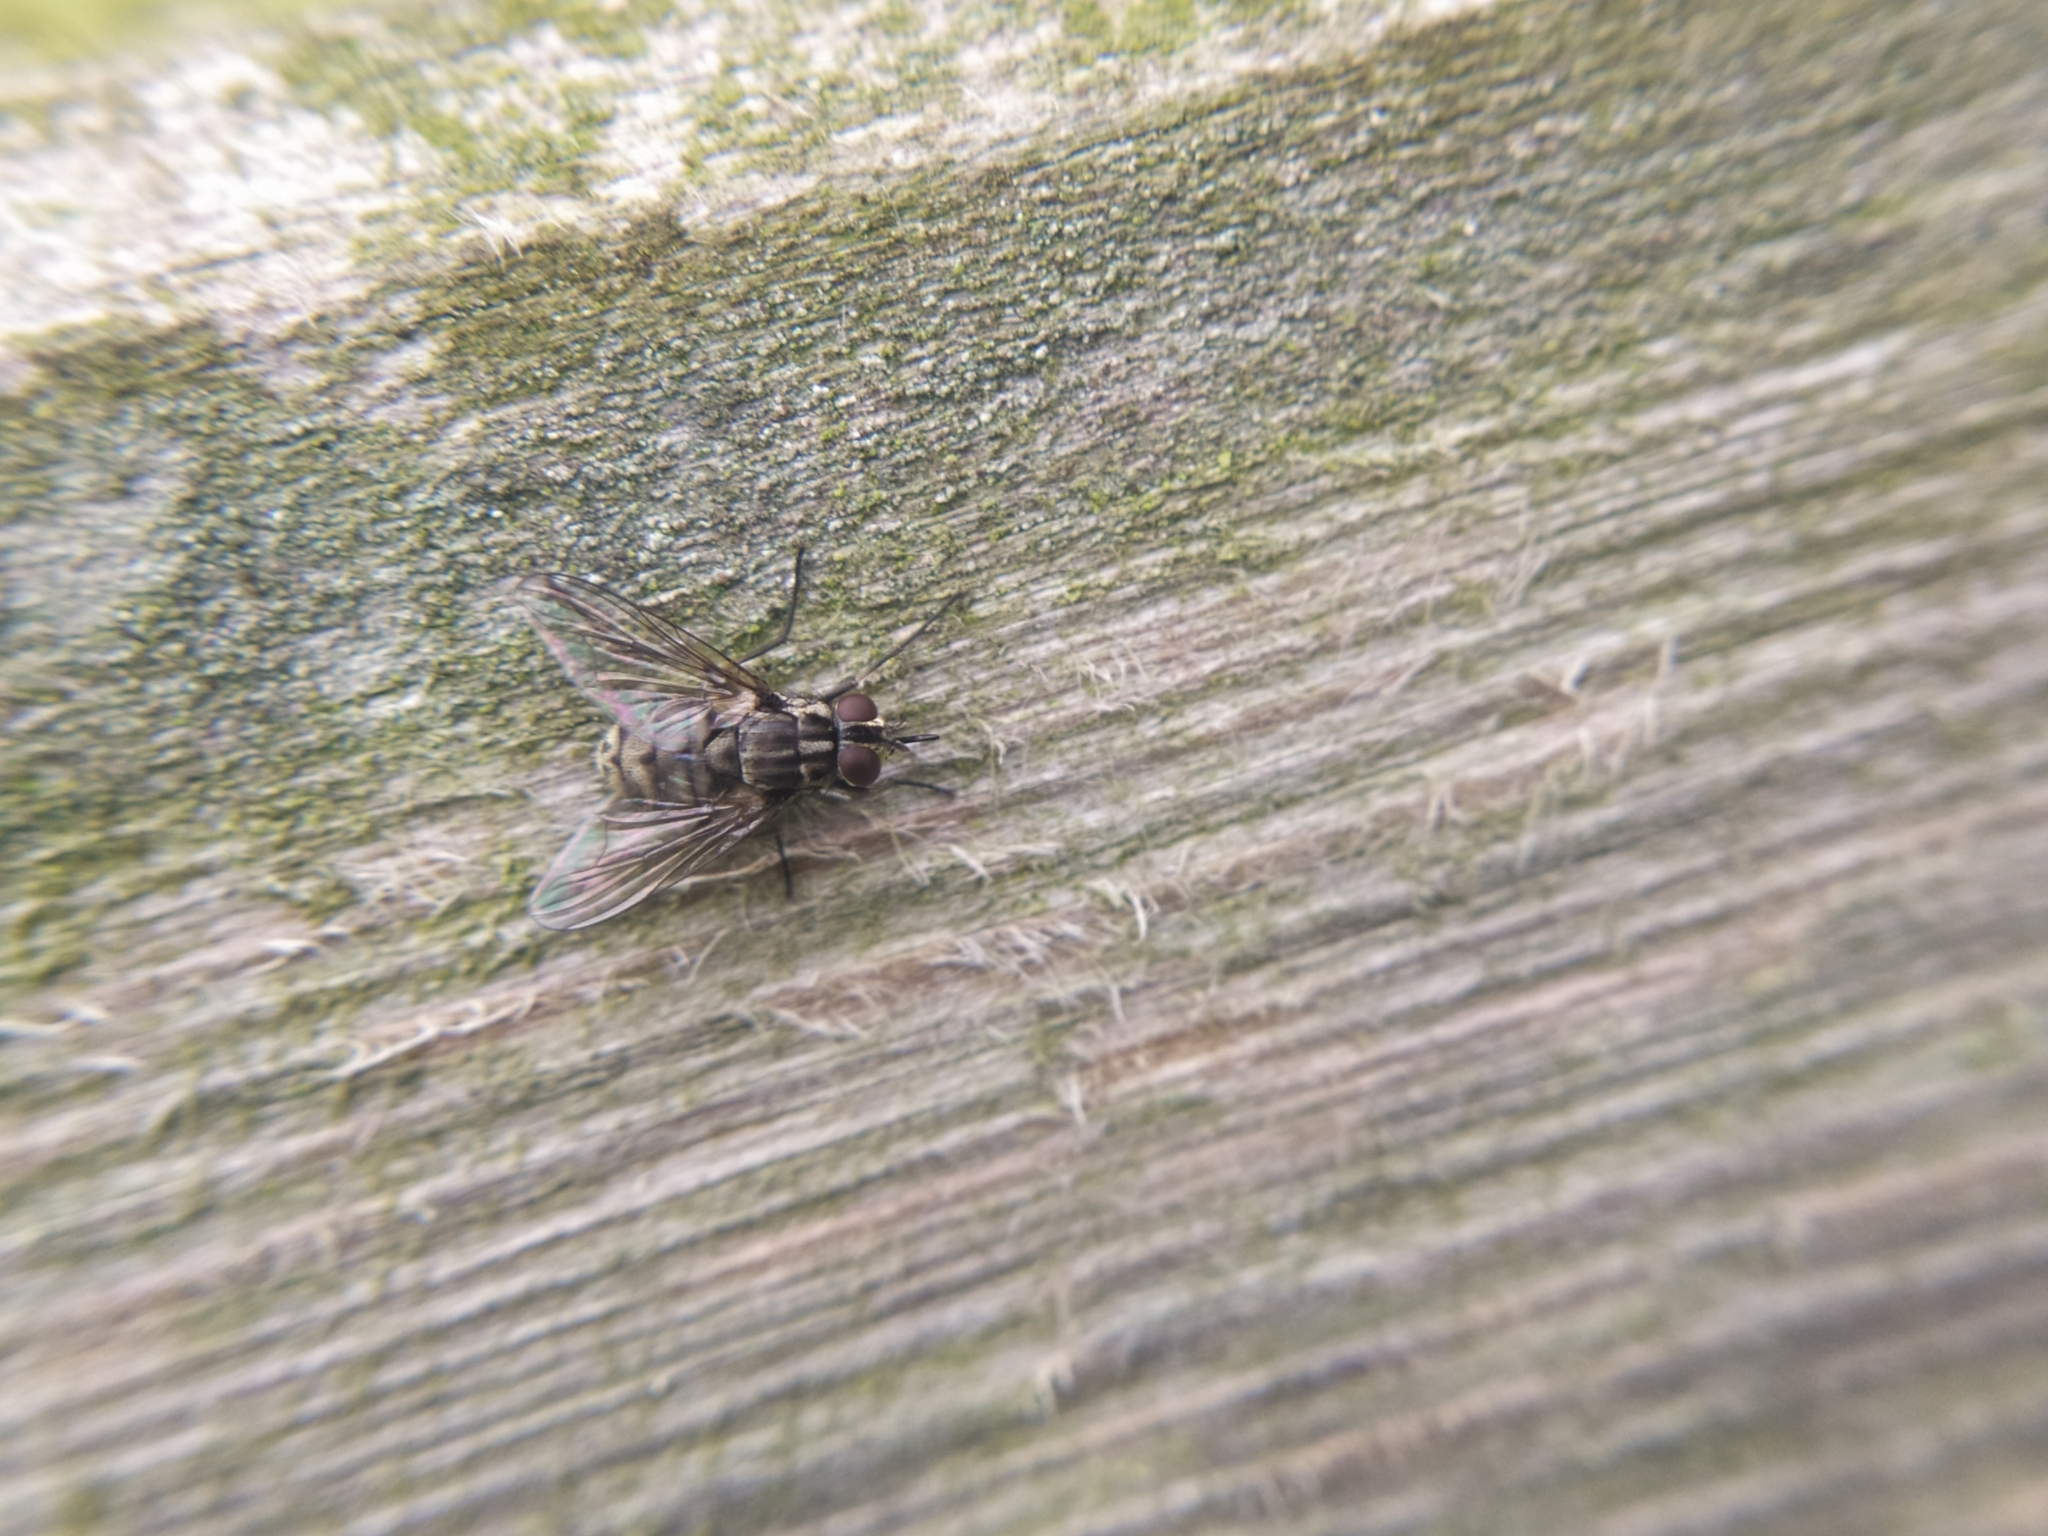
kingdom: Animalia
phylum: Arthropoda
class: Insecta
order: Diptera
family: Muscidae
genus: Stomoxys
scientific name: Stomoxys calcitrans
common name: Stable fly
